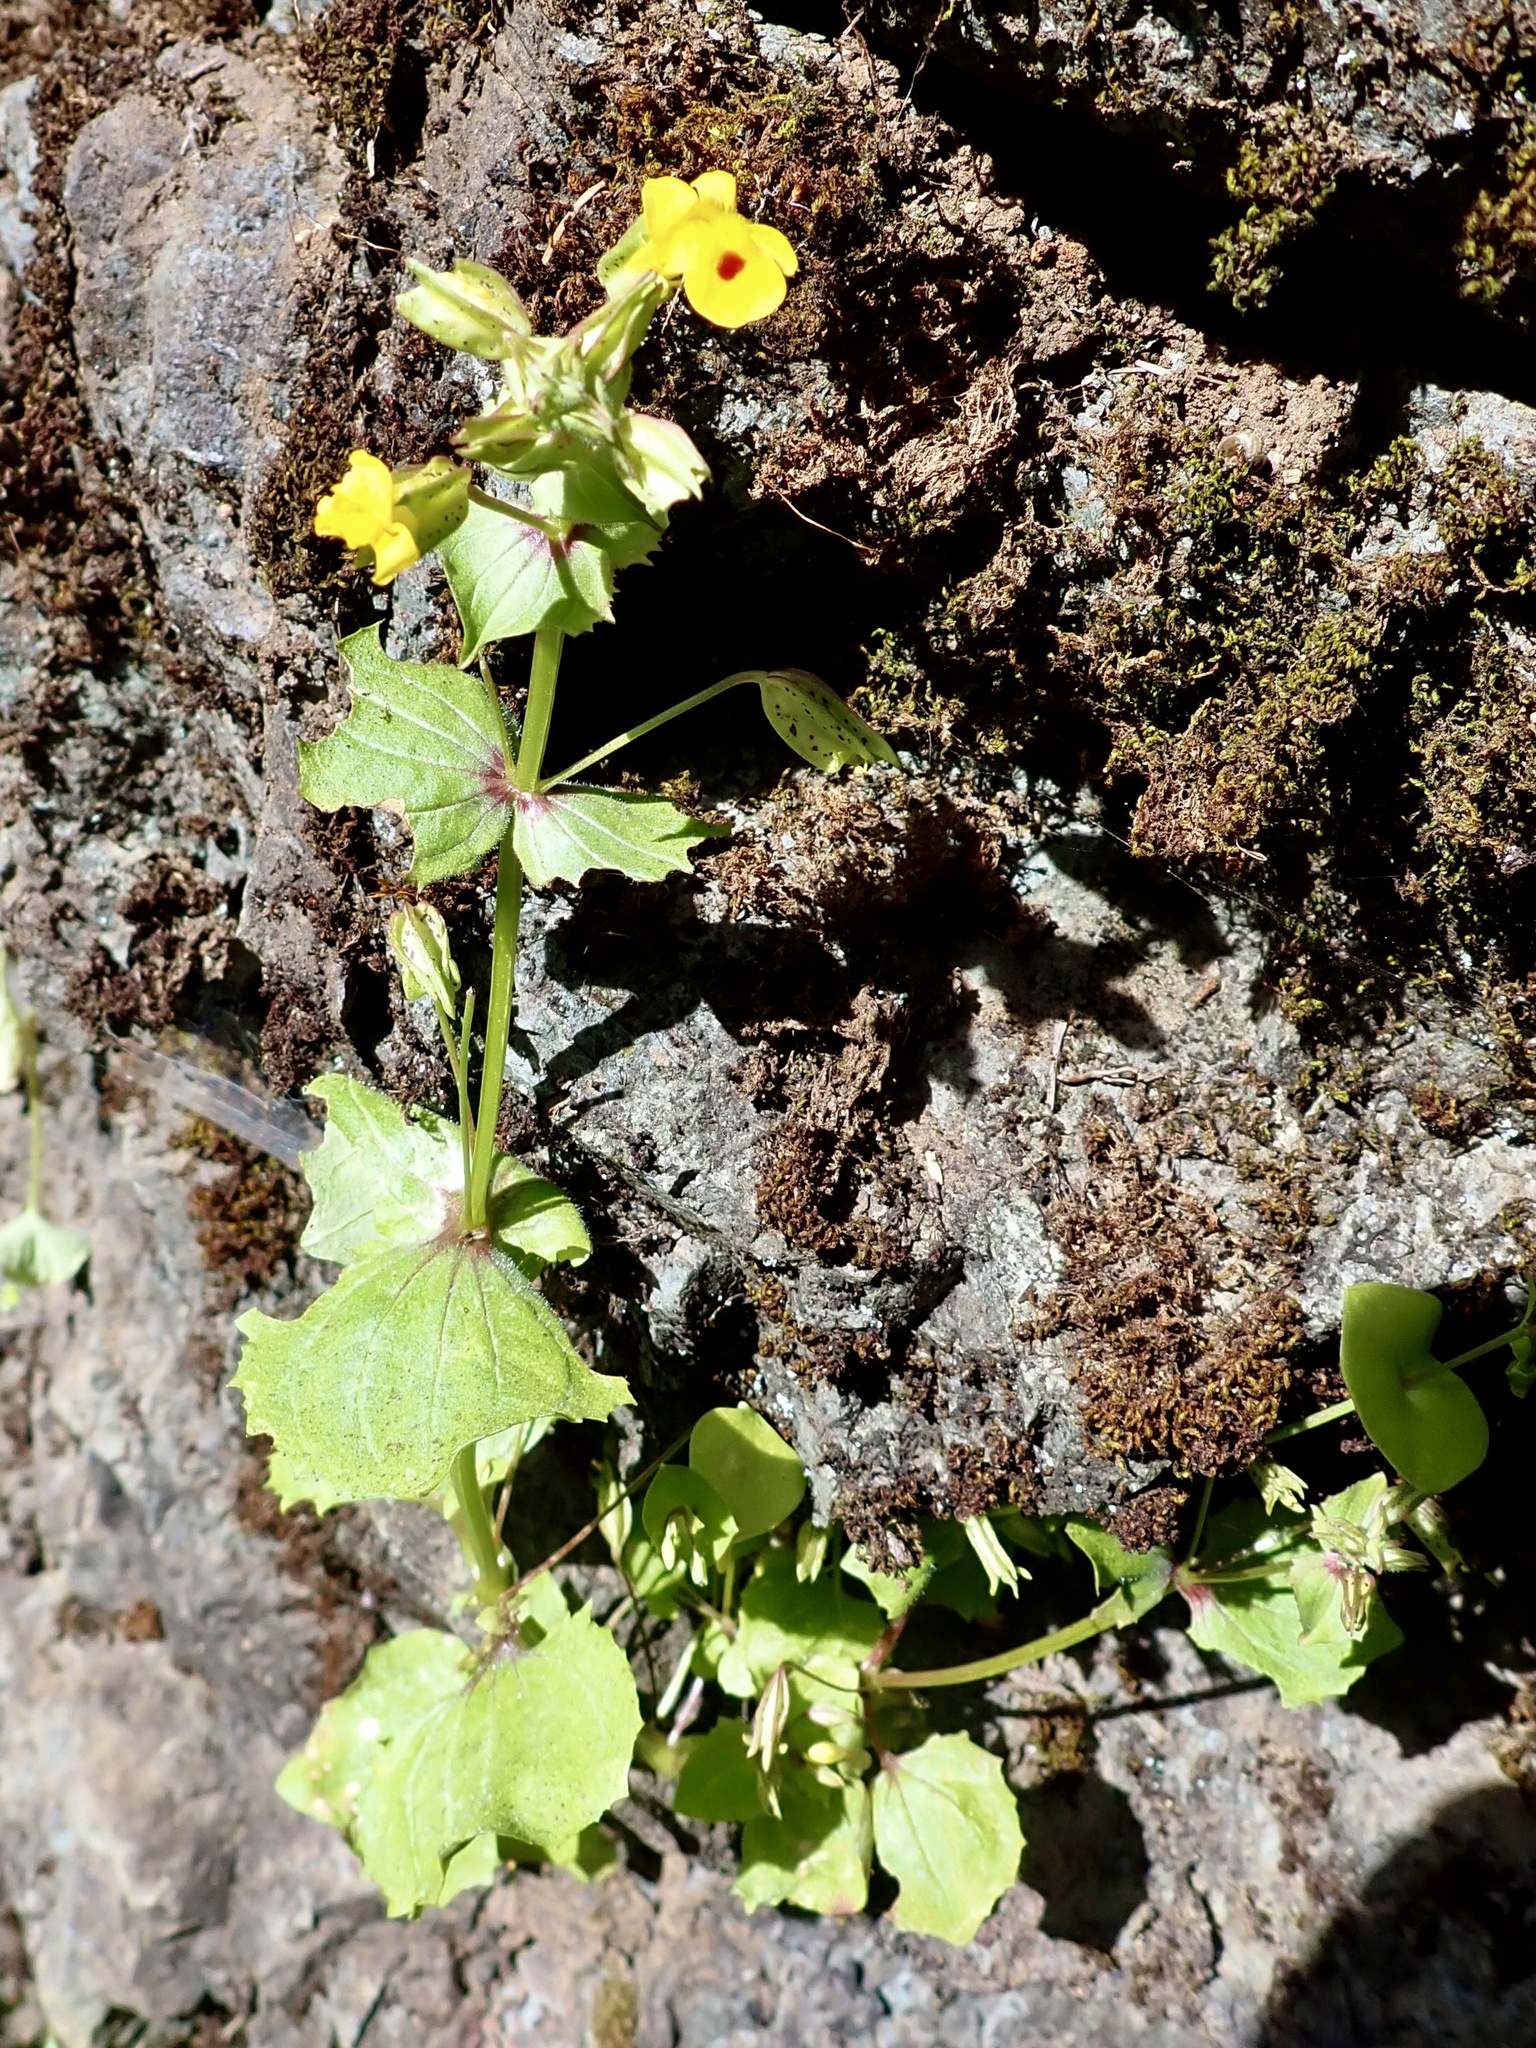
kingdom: Plantae
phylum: Tracheophyta
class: Magnoliopsida
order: Lamiales
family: Phrymaceae
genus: Erythranthe
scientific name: Erythranthe nasuta
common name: Sooke monkeyflower
